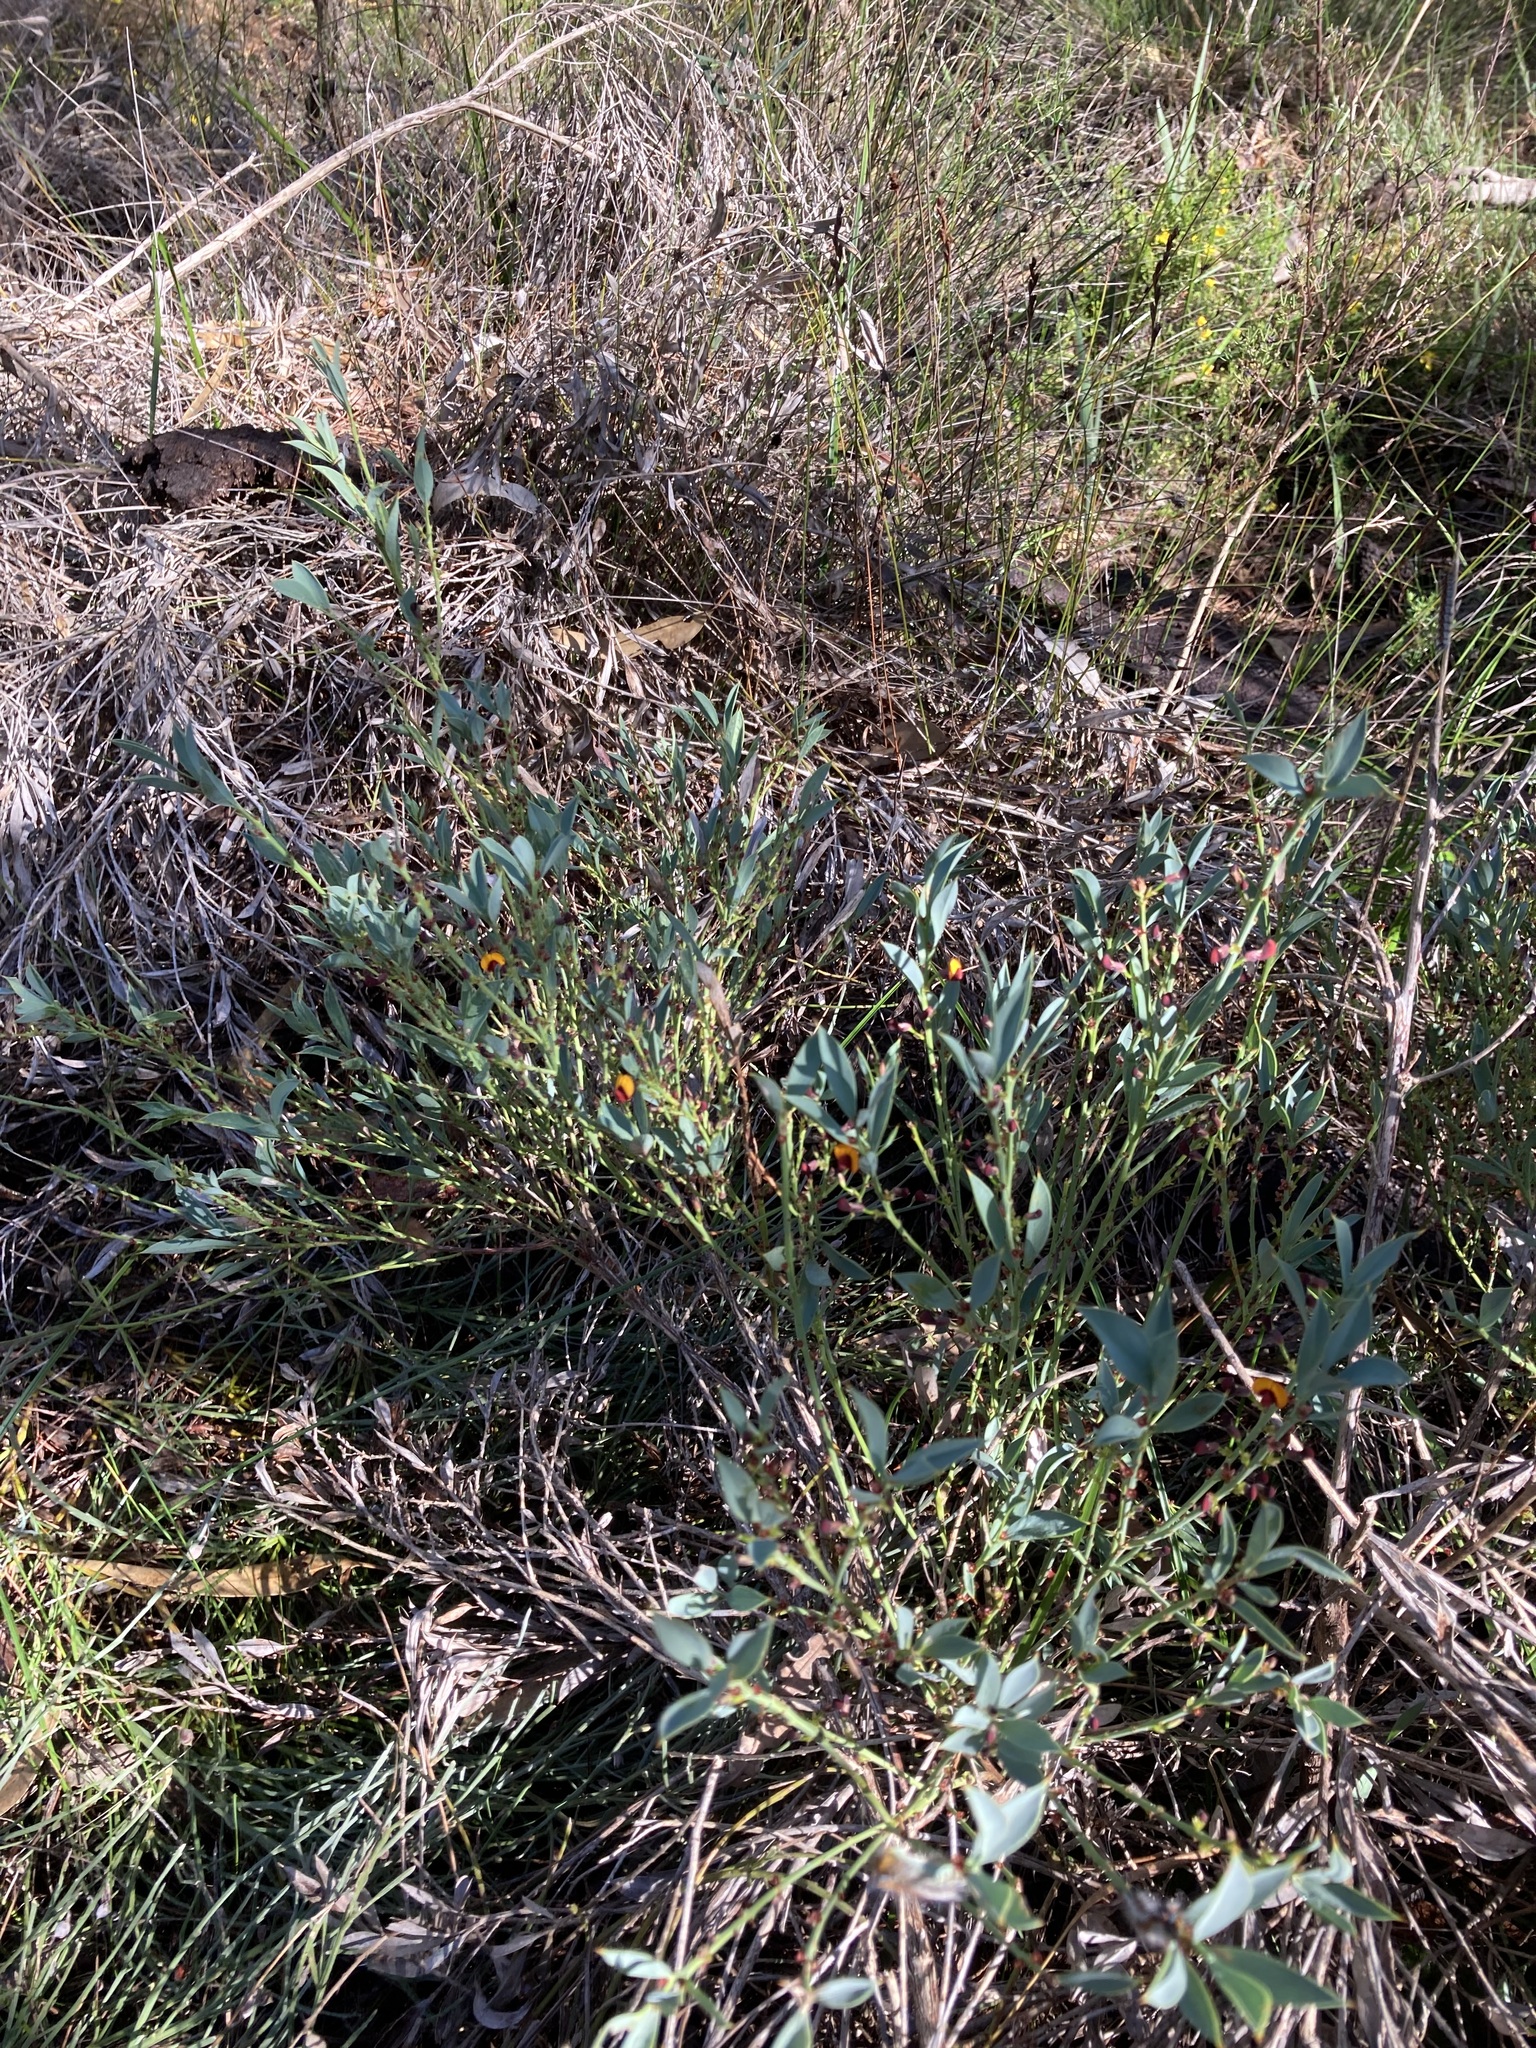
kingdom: Plantae
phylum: Tracheophyta
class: Magnoliopsida
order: Fabales
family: Fabaceae
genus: Daviesia
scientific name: Daviesia nudiflora
